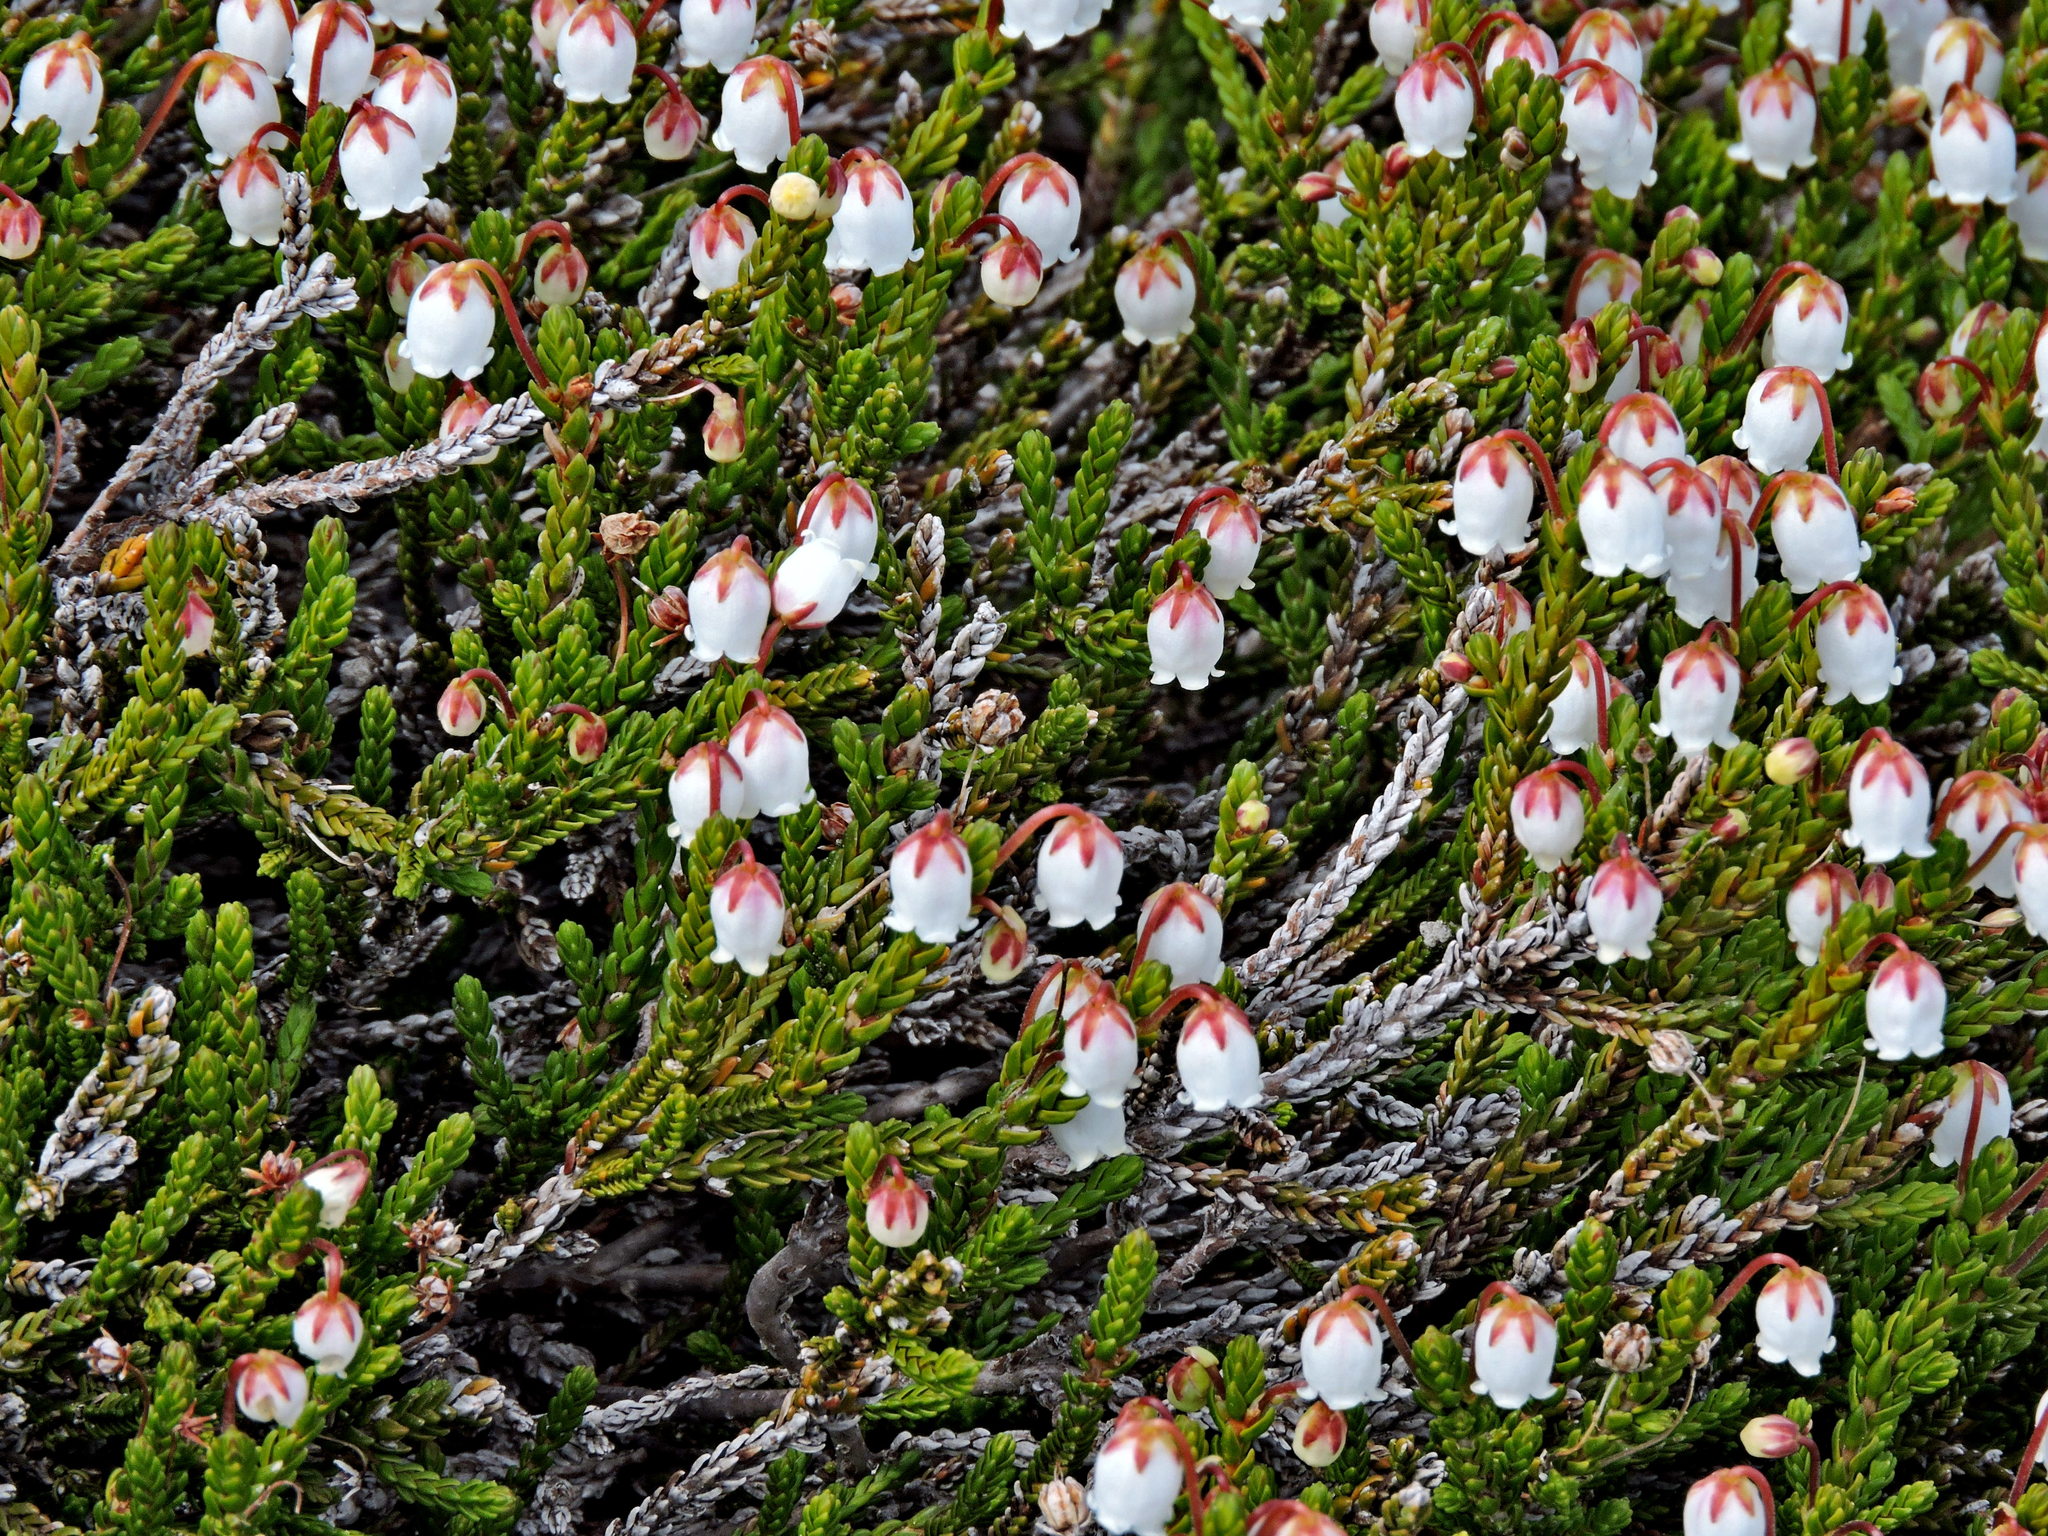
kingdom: Plantae
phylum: Tracheophyta
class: Magnoliopsida
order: Ericales
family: Ericaceae
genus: Cassiope
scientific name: Cassiope mertensiana
